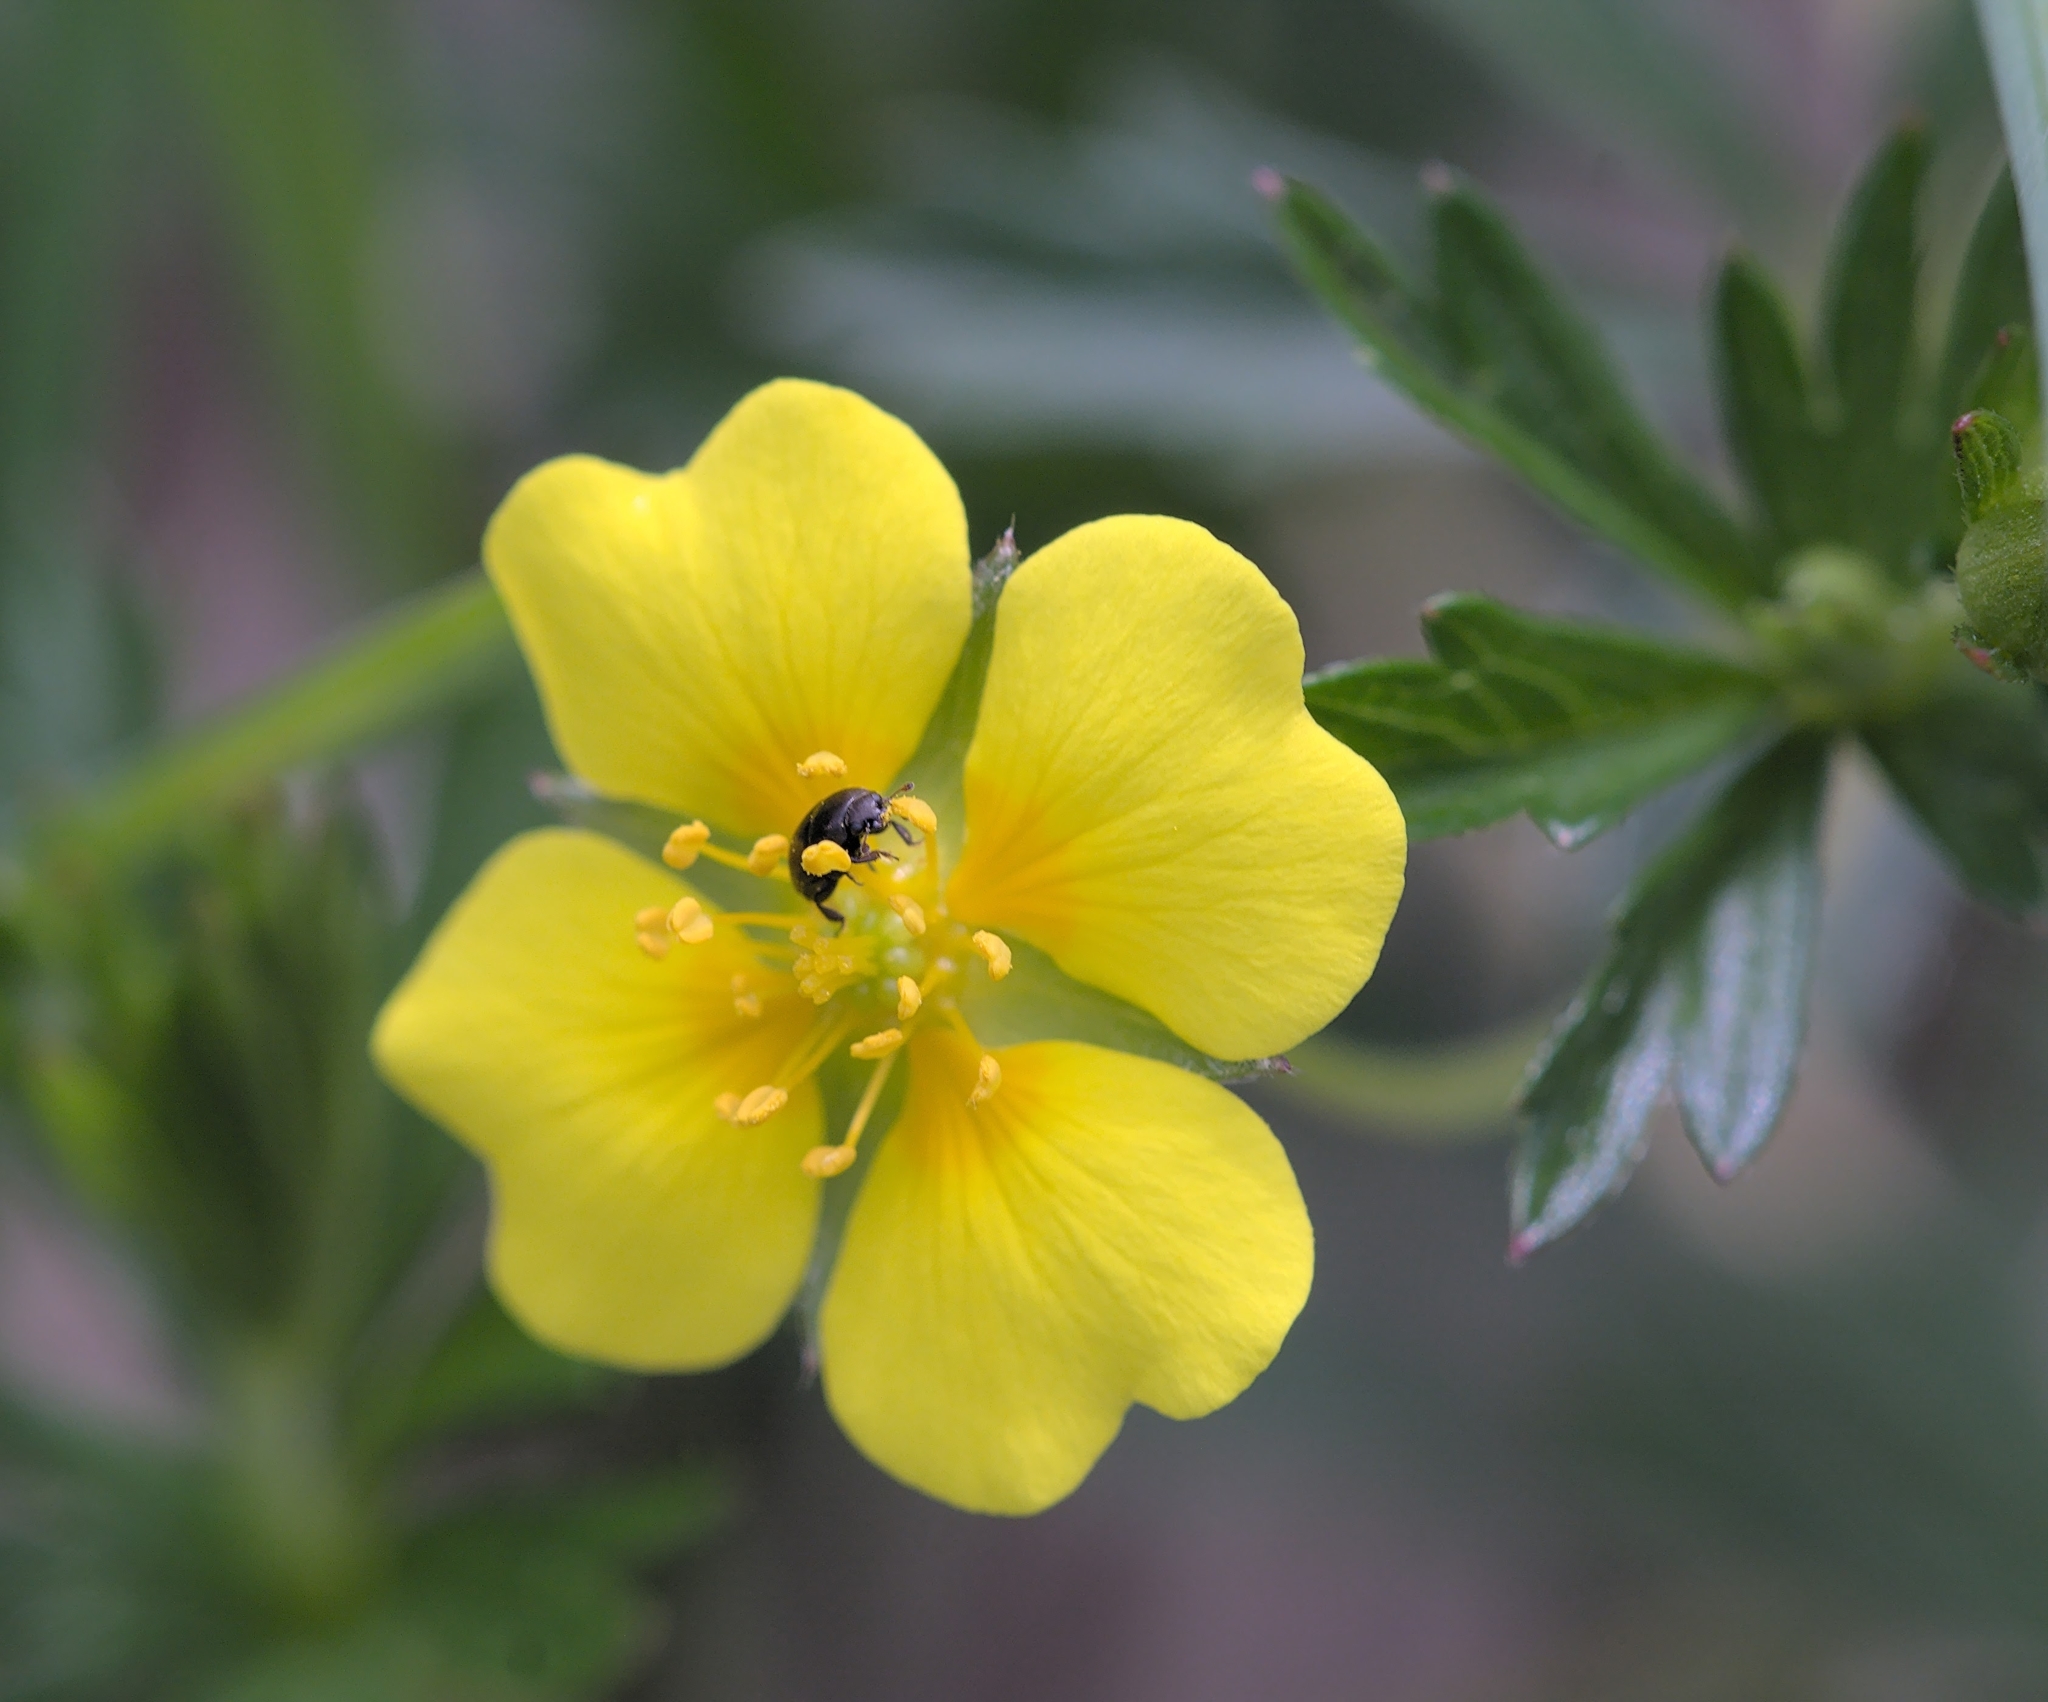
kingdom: Plantae
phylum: Tracheophyta
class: Magnoliopsida
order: Rosales
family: Rosaceae
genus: Potentilla
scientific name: Potentilla erecta
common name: Tormentil
